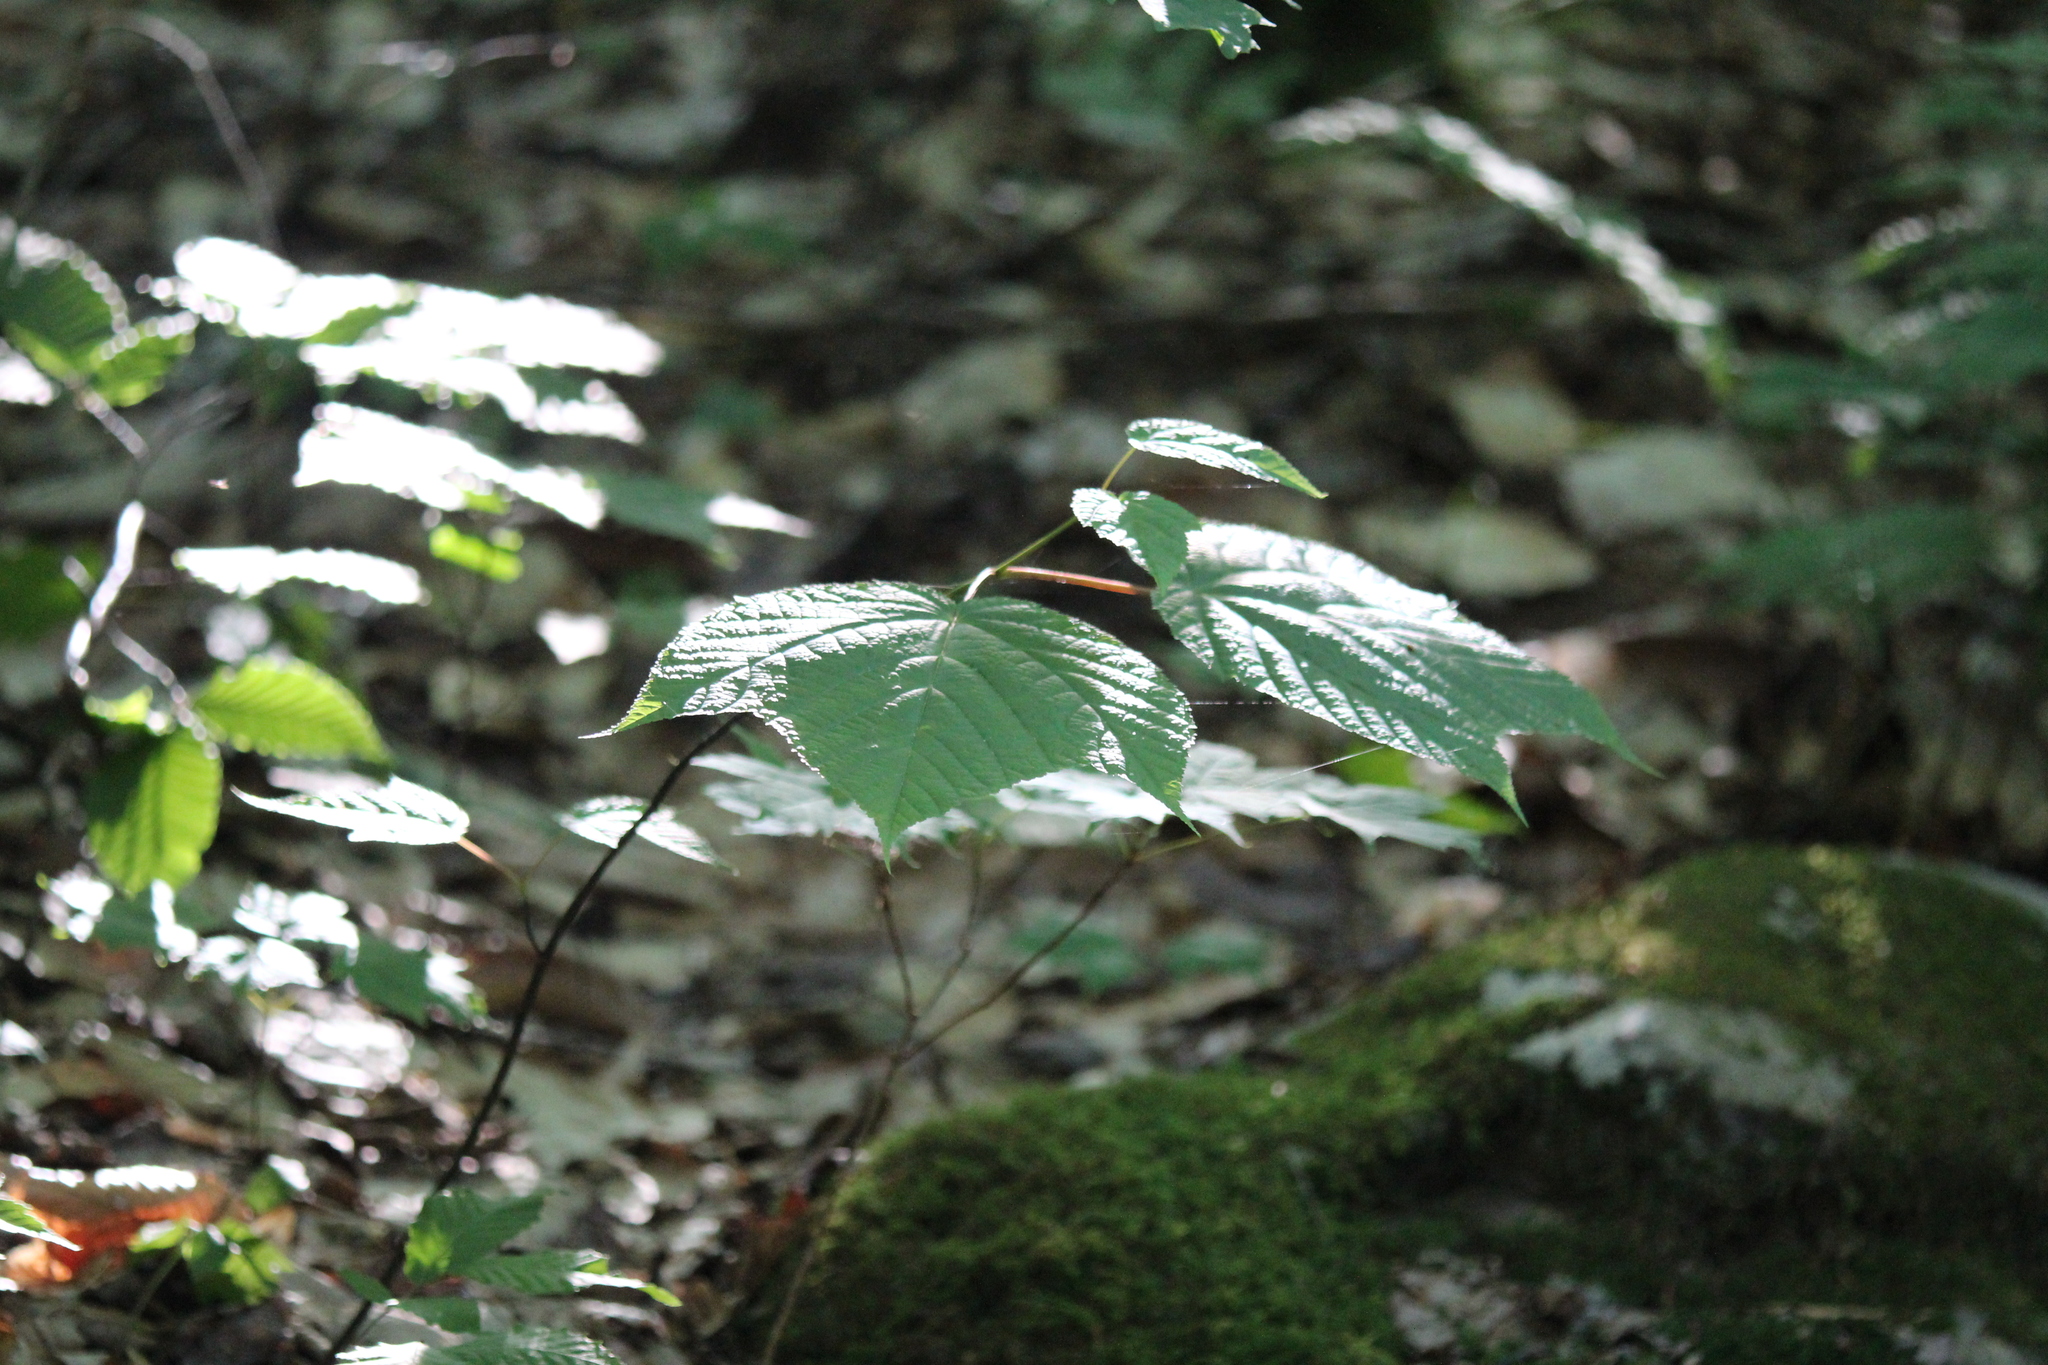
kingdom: Plantae
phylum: Tracheophyta
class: Magnoliopsida
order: Sapindales
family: Sapindaceae
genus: Acer
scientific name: Acer pensylvanicum
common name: Moosewood
